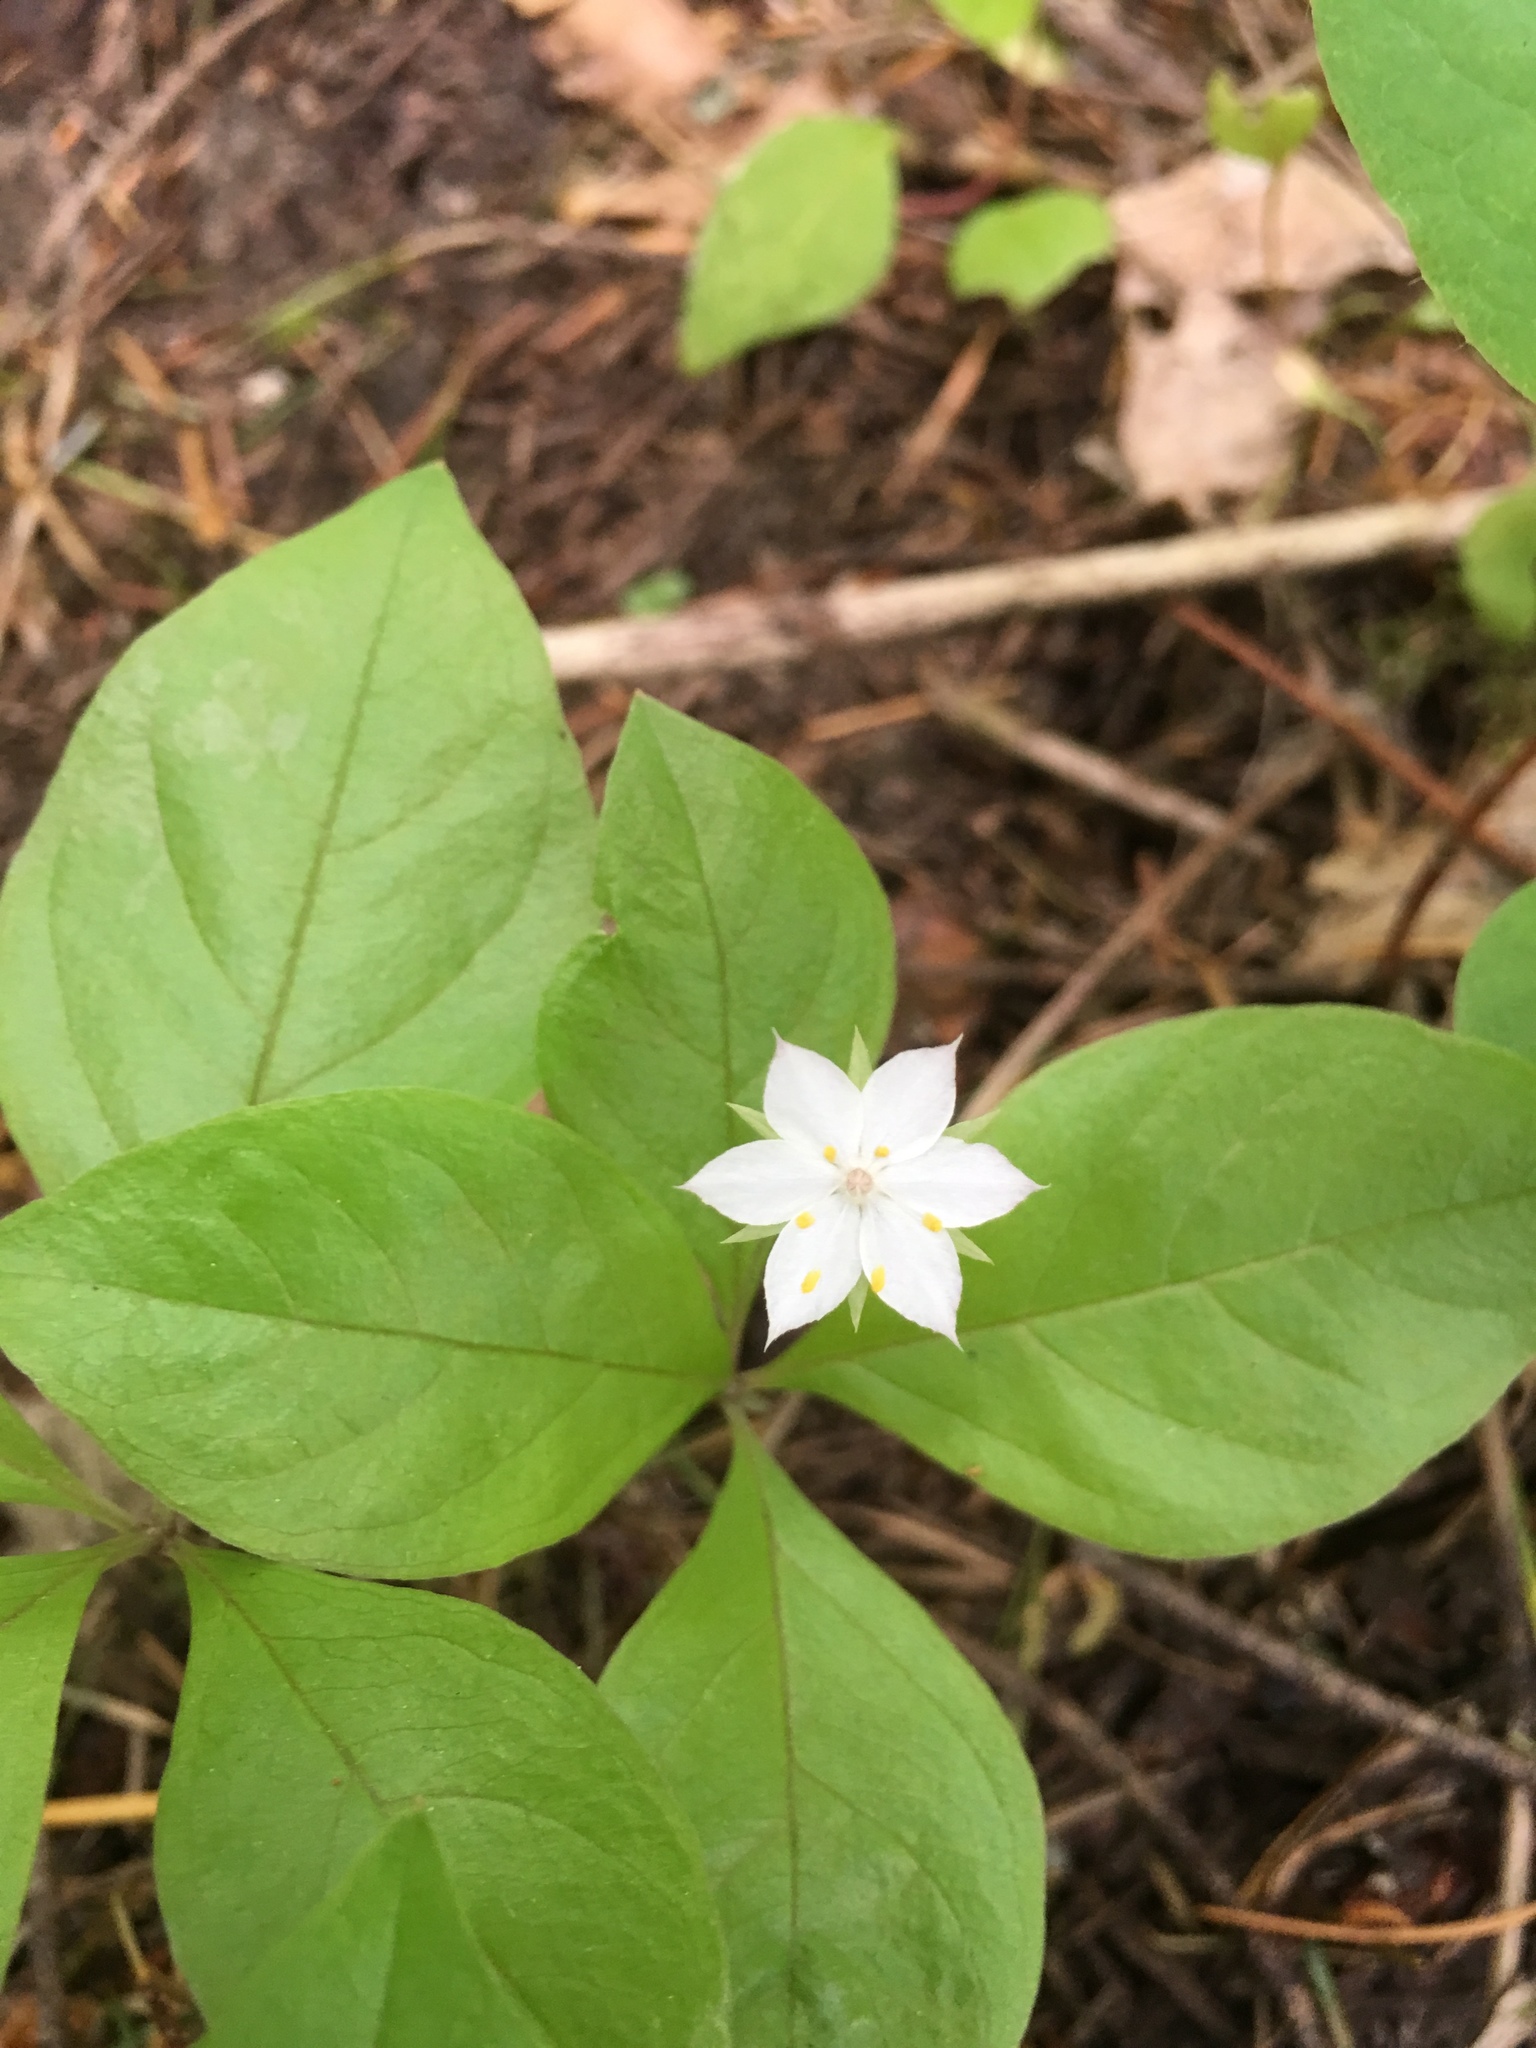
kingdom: Plantae
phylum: Tracheophyta
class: Magnoliopsida
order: Ericales
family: Primulaceae
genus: Lysimachia
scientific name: Lysimachia latifolia
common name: Pacific starflower
